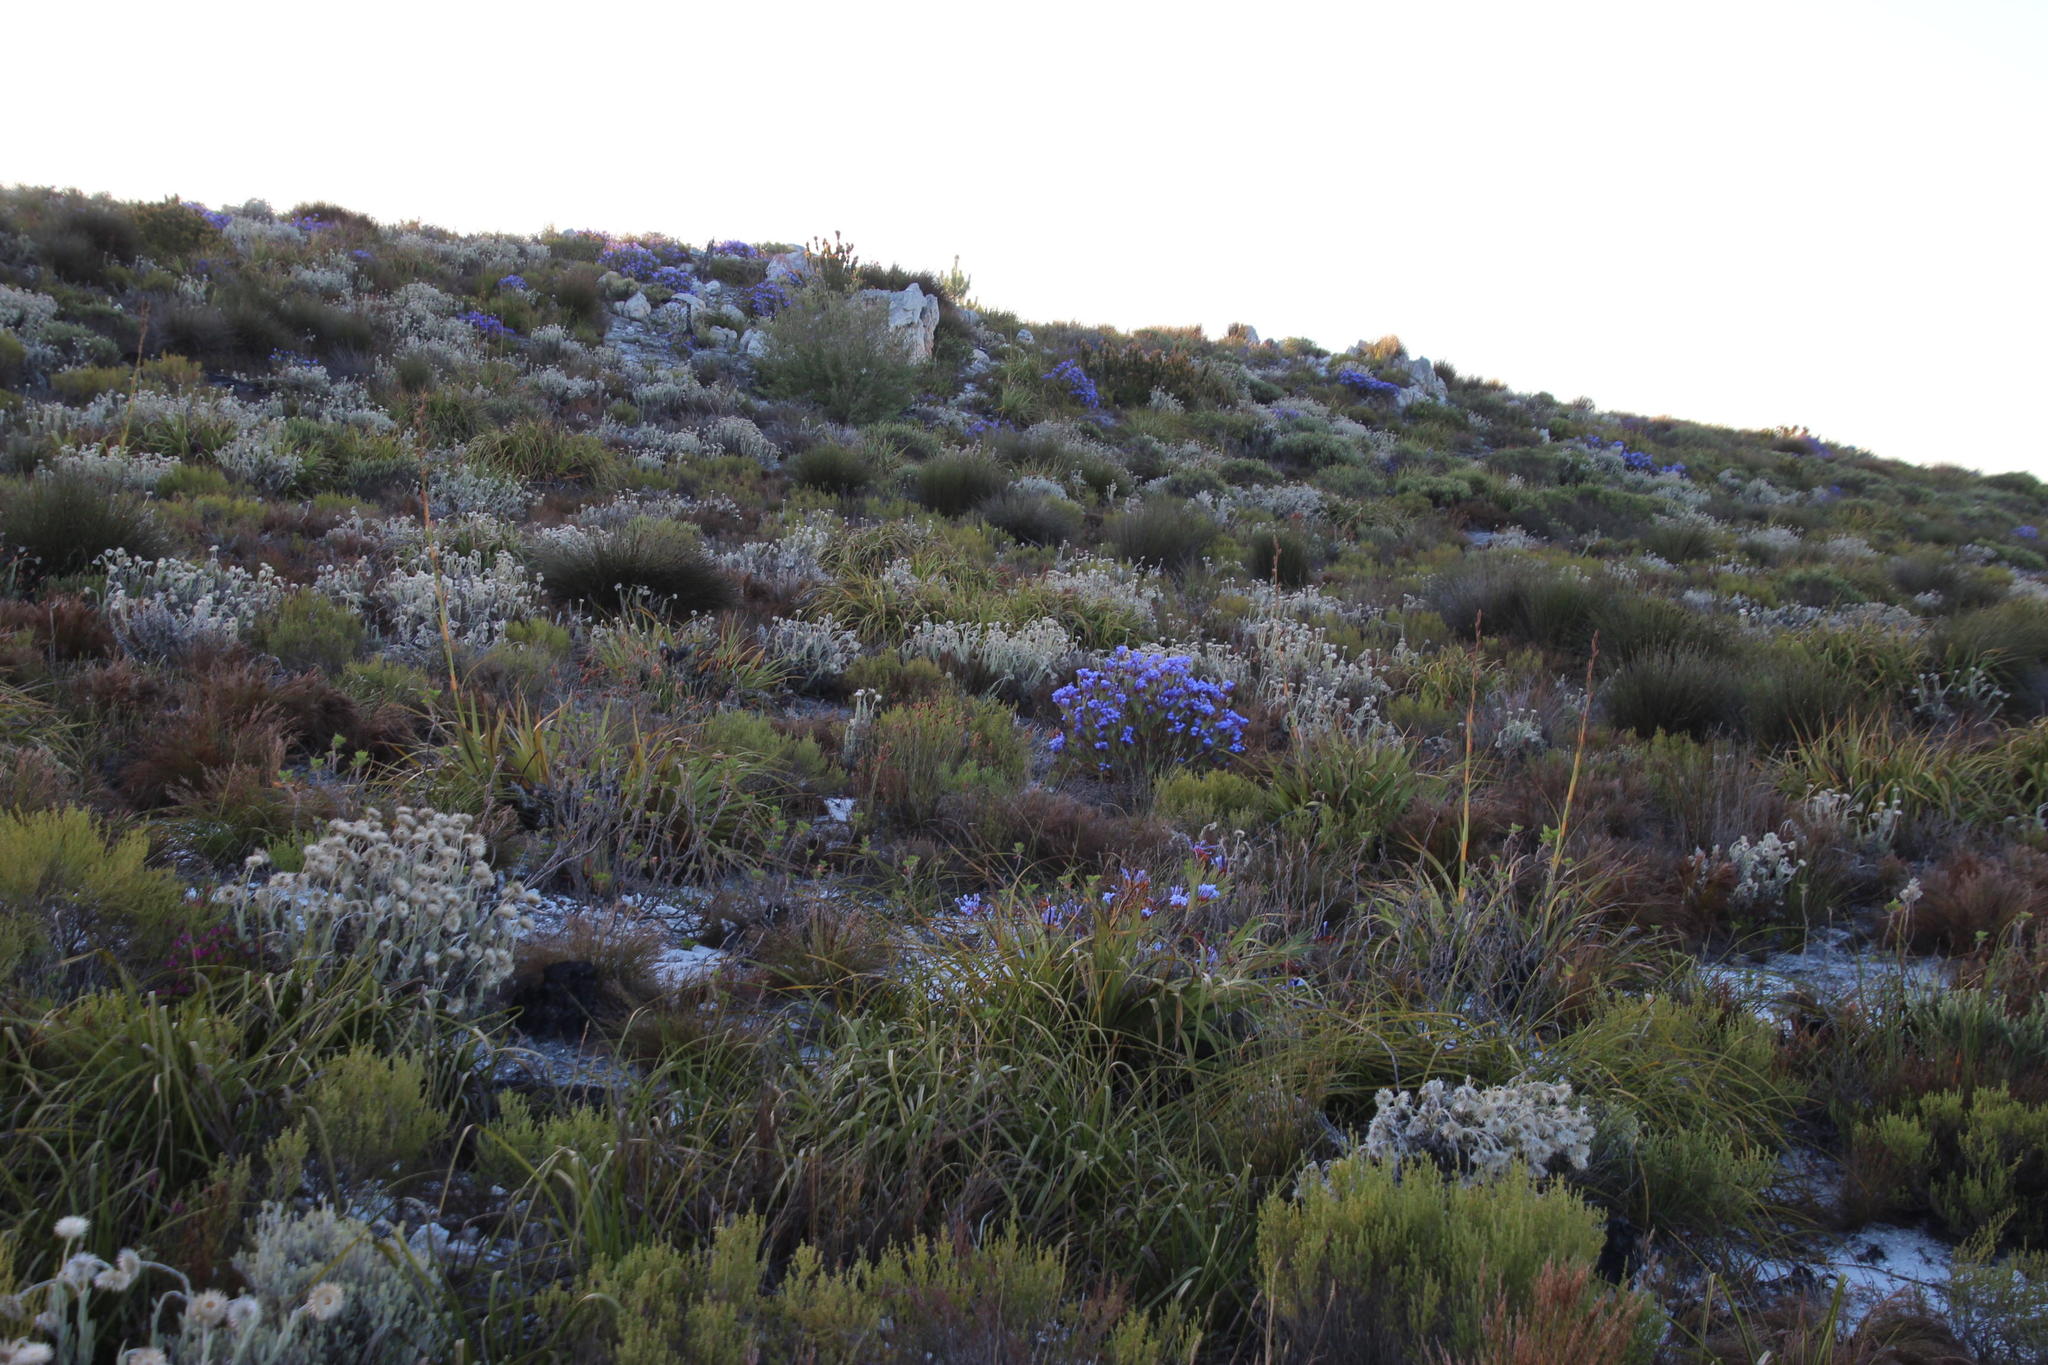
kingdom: Plantae
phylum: Tracheophyta
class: Liliopsida
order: Asparagales
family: Iridaceae
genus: Nivenia
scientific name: Nivenia stokoei
